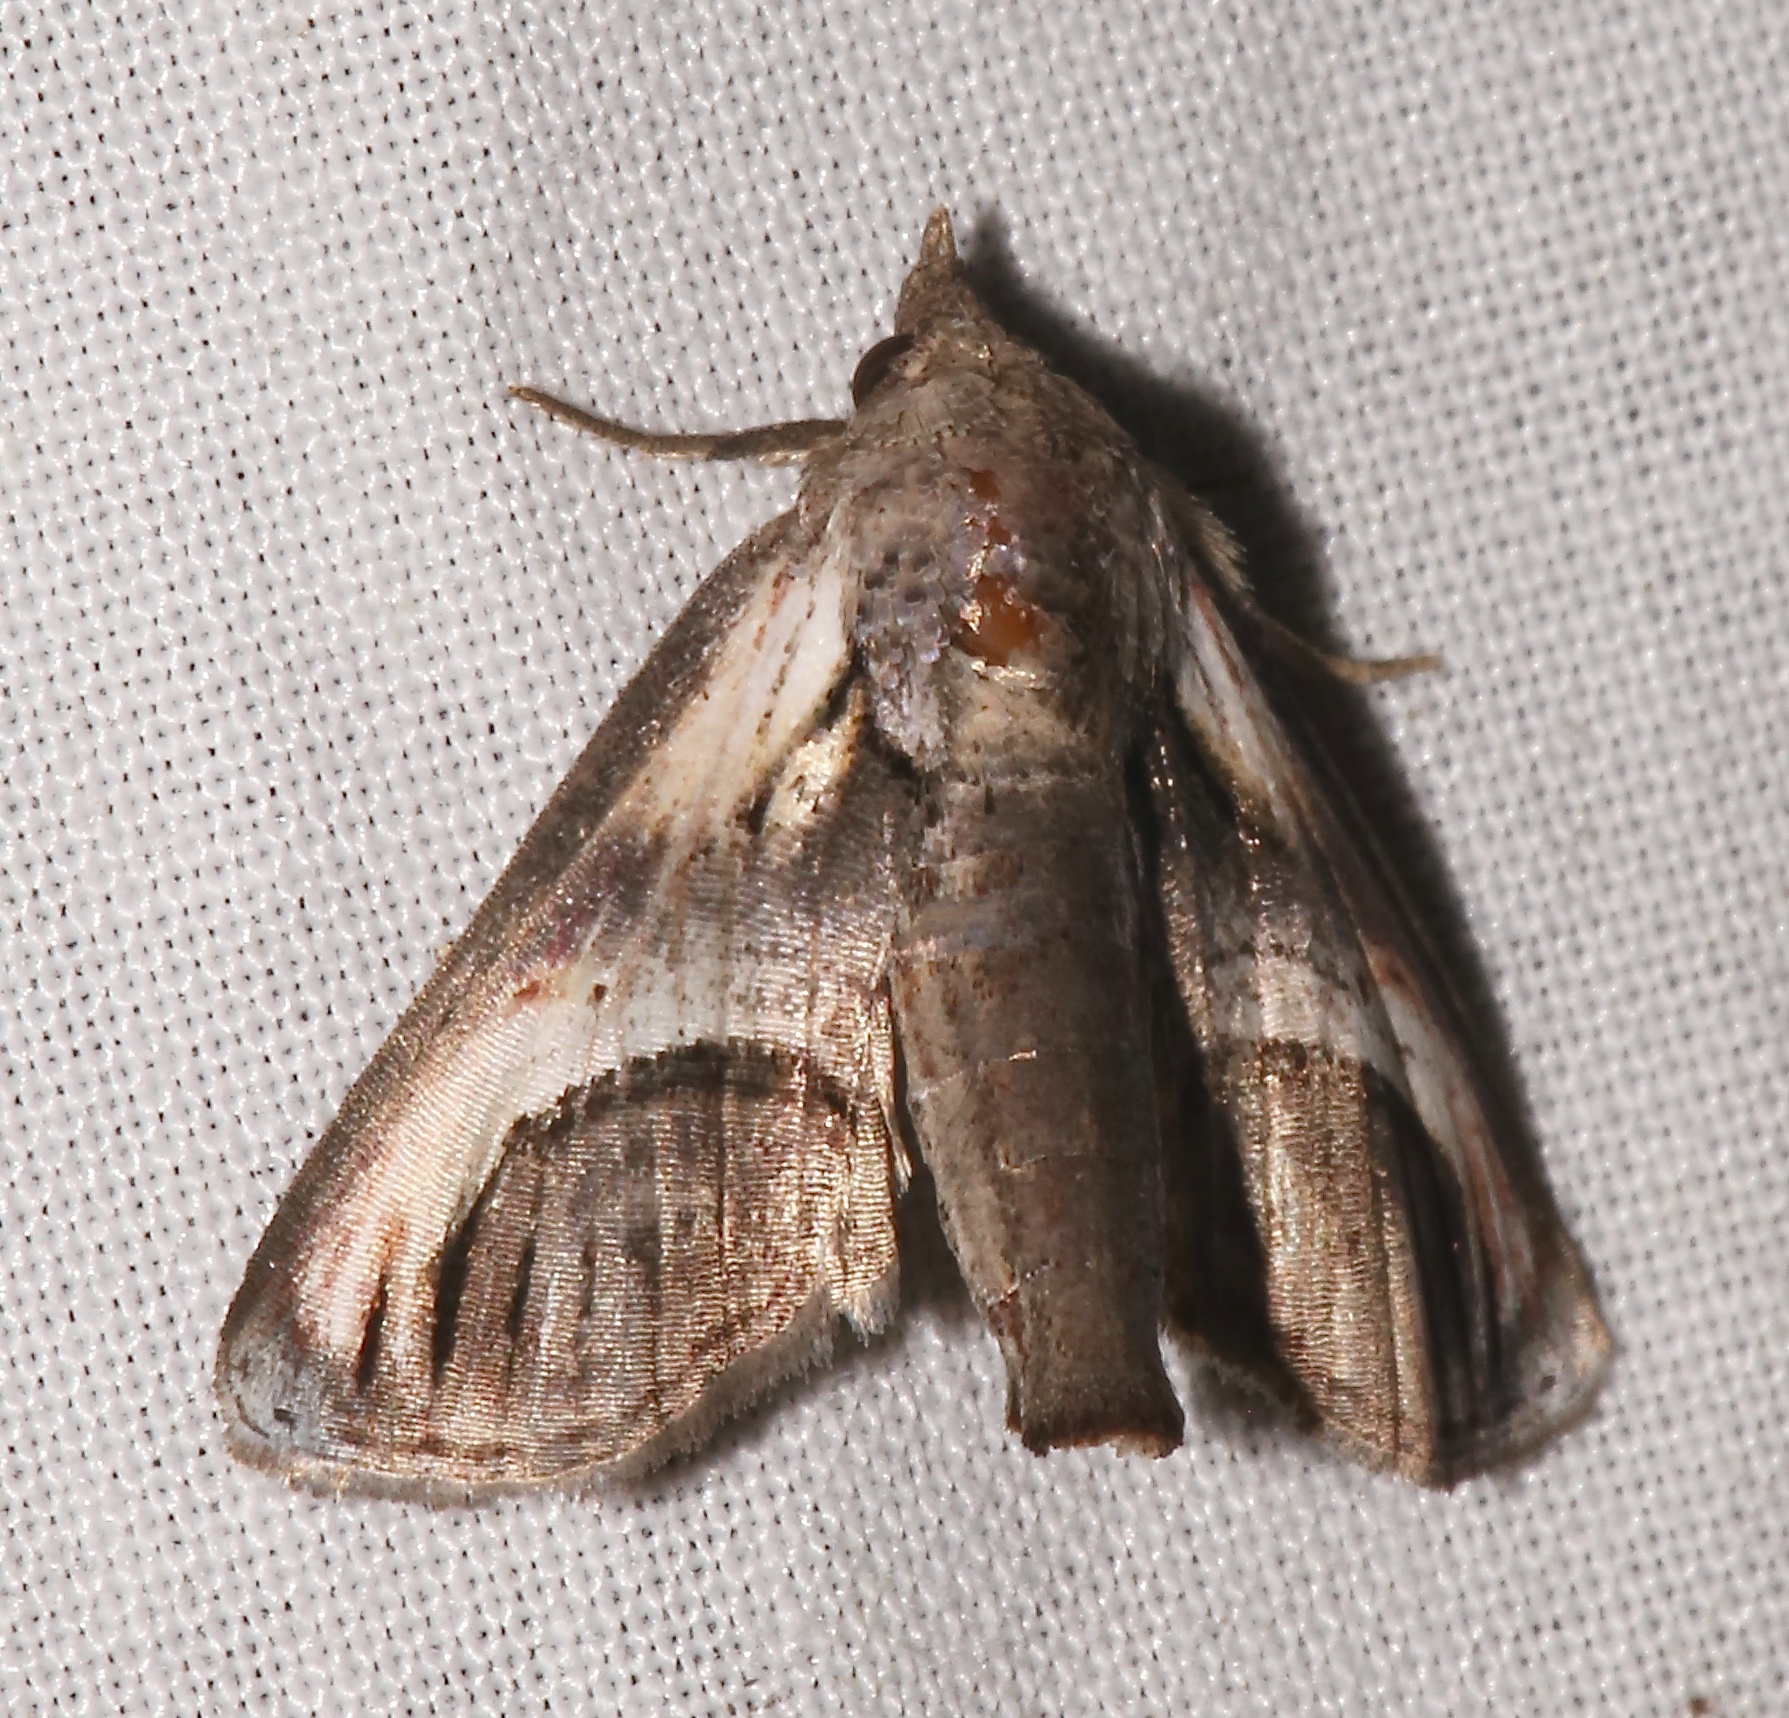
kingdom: Animalia
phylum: Arthropoda
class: Insecta
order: Lepidoptera
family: Euteliidae
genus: Paectes
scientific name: Paectes oculatrix
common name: Eyed paectes moth
